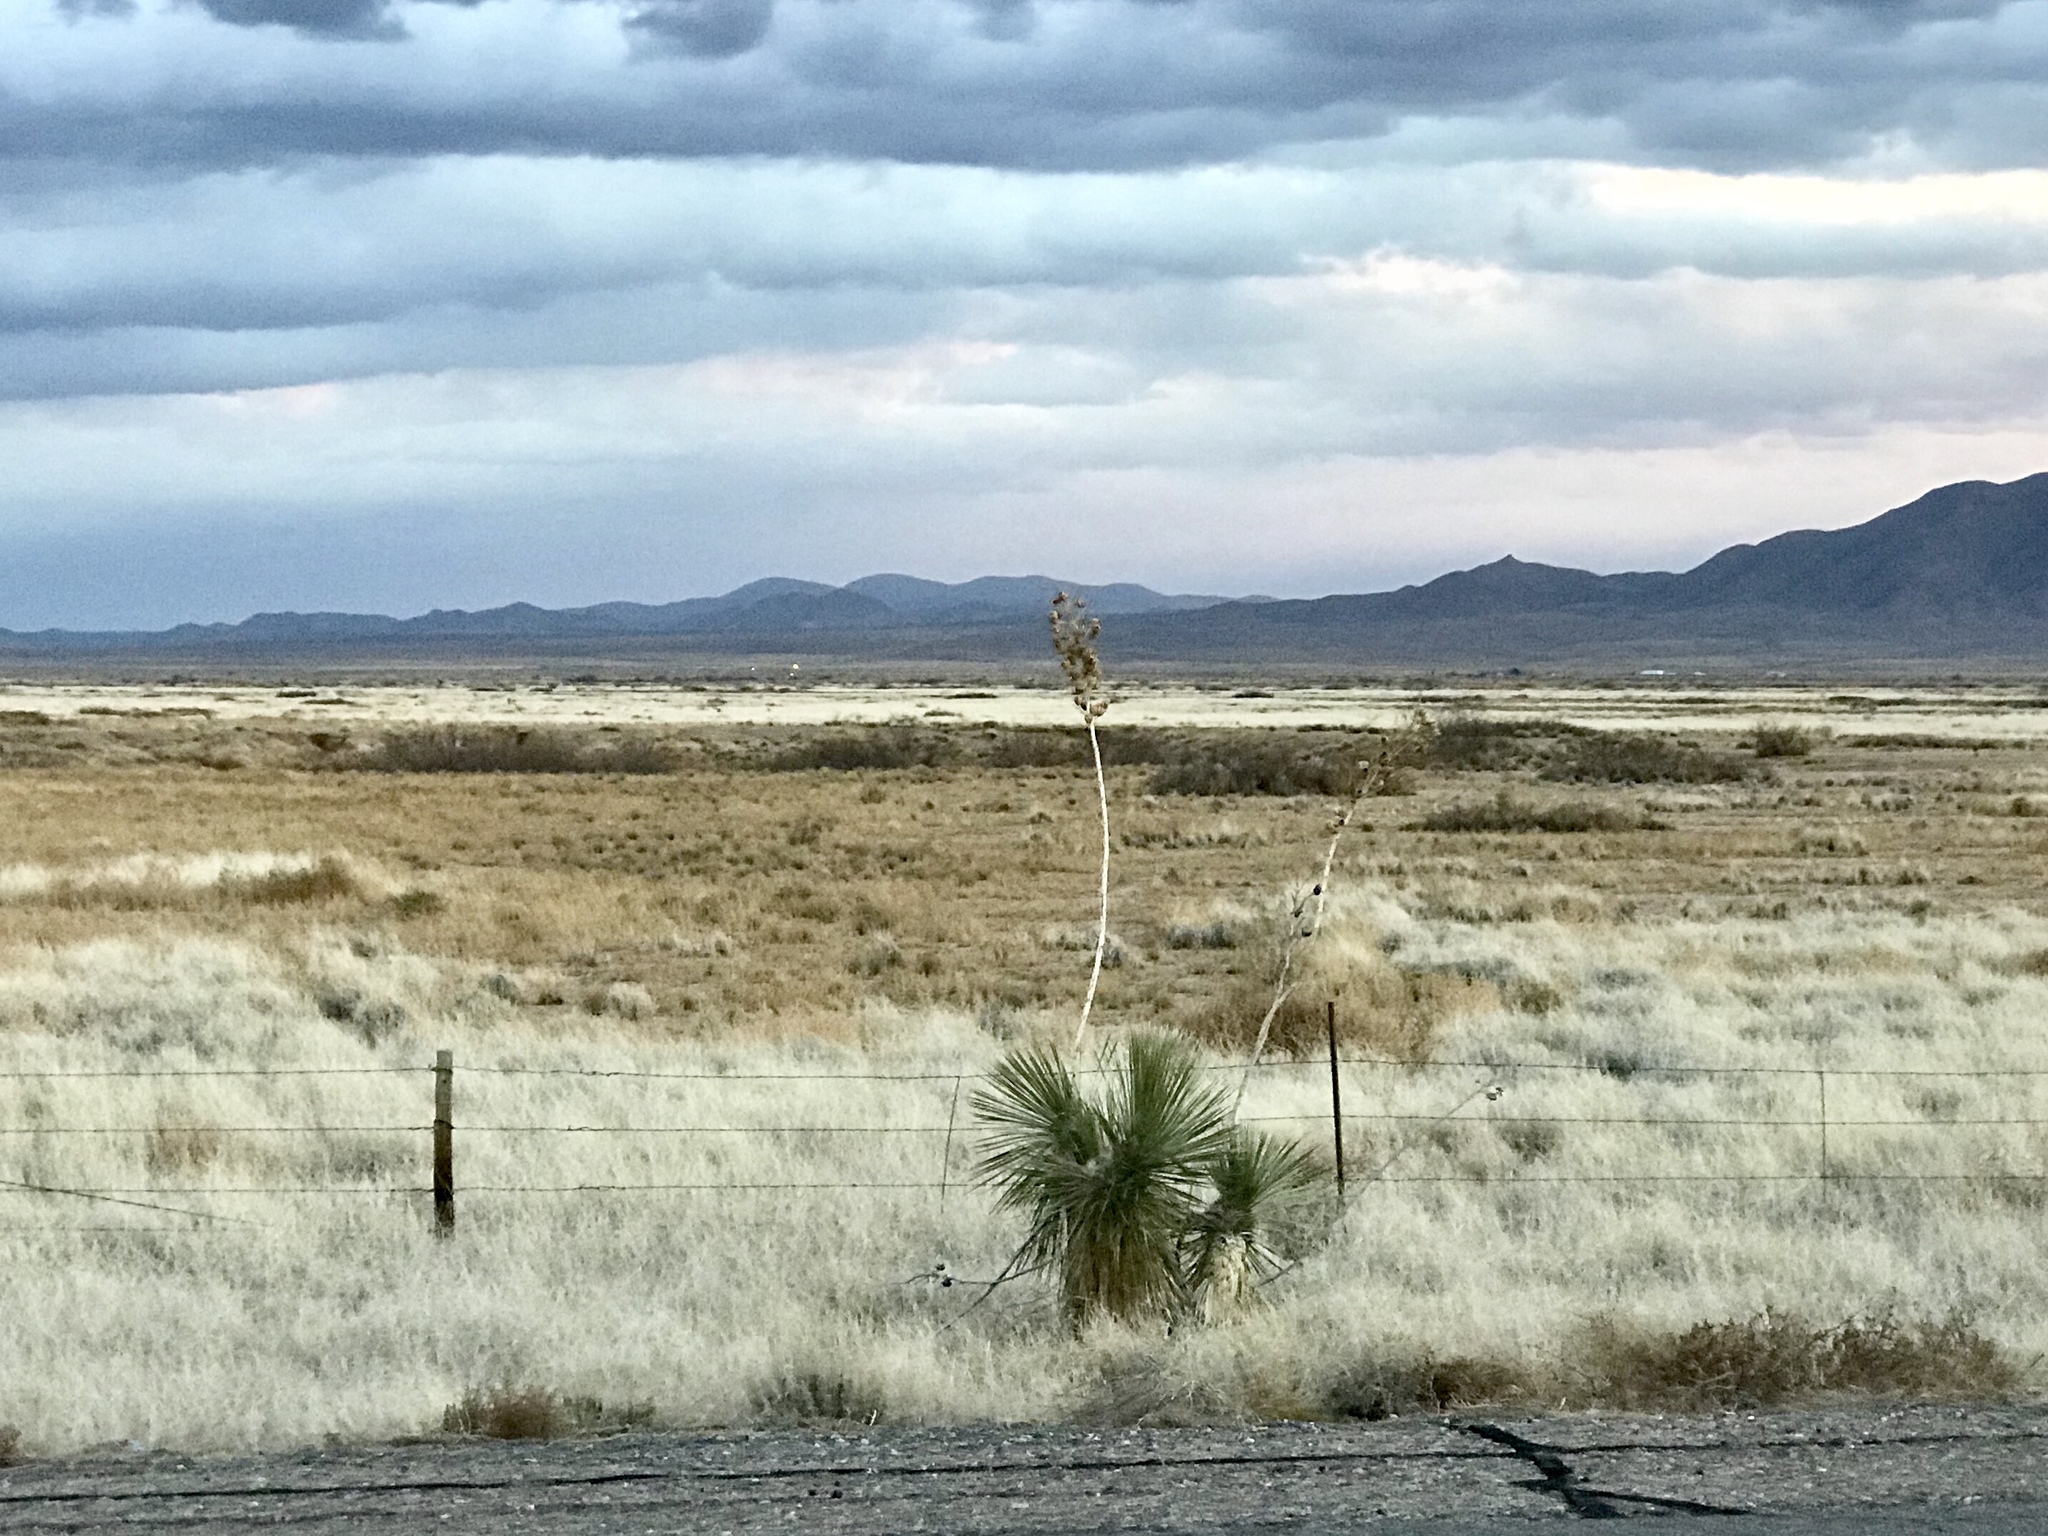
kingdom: Plantae
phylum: Tracheophyta
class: Liliopsida
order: Asparagales
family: Asparagaceae
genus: Yucca
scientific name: Yucca elata
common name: Palmella
